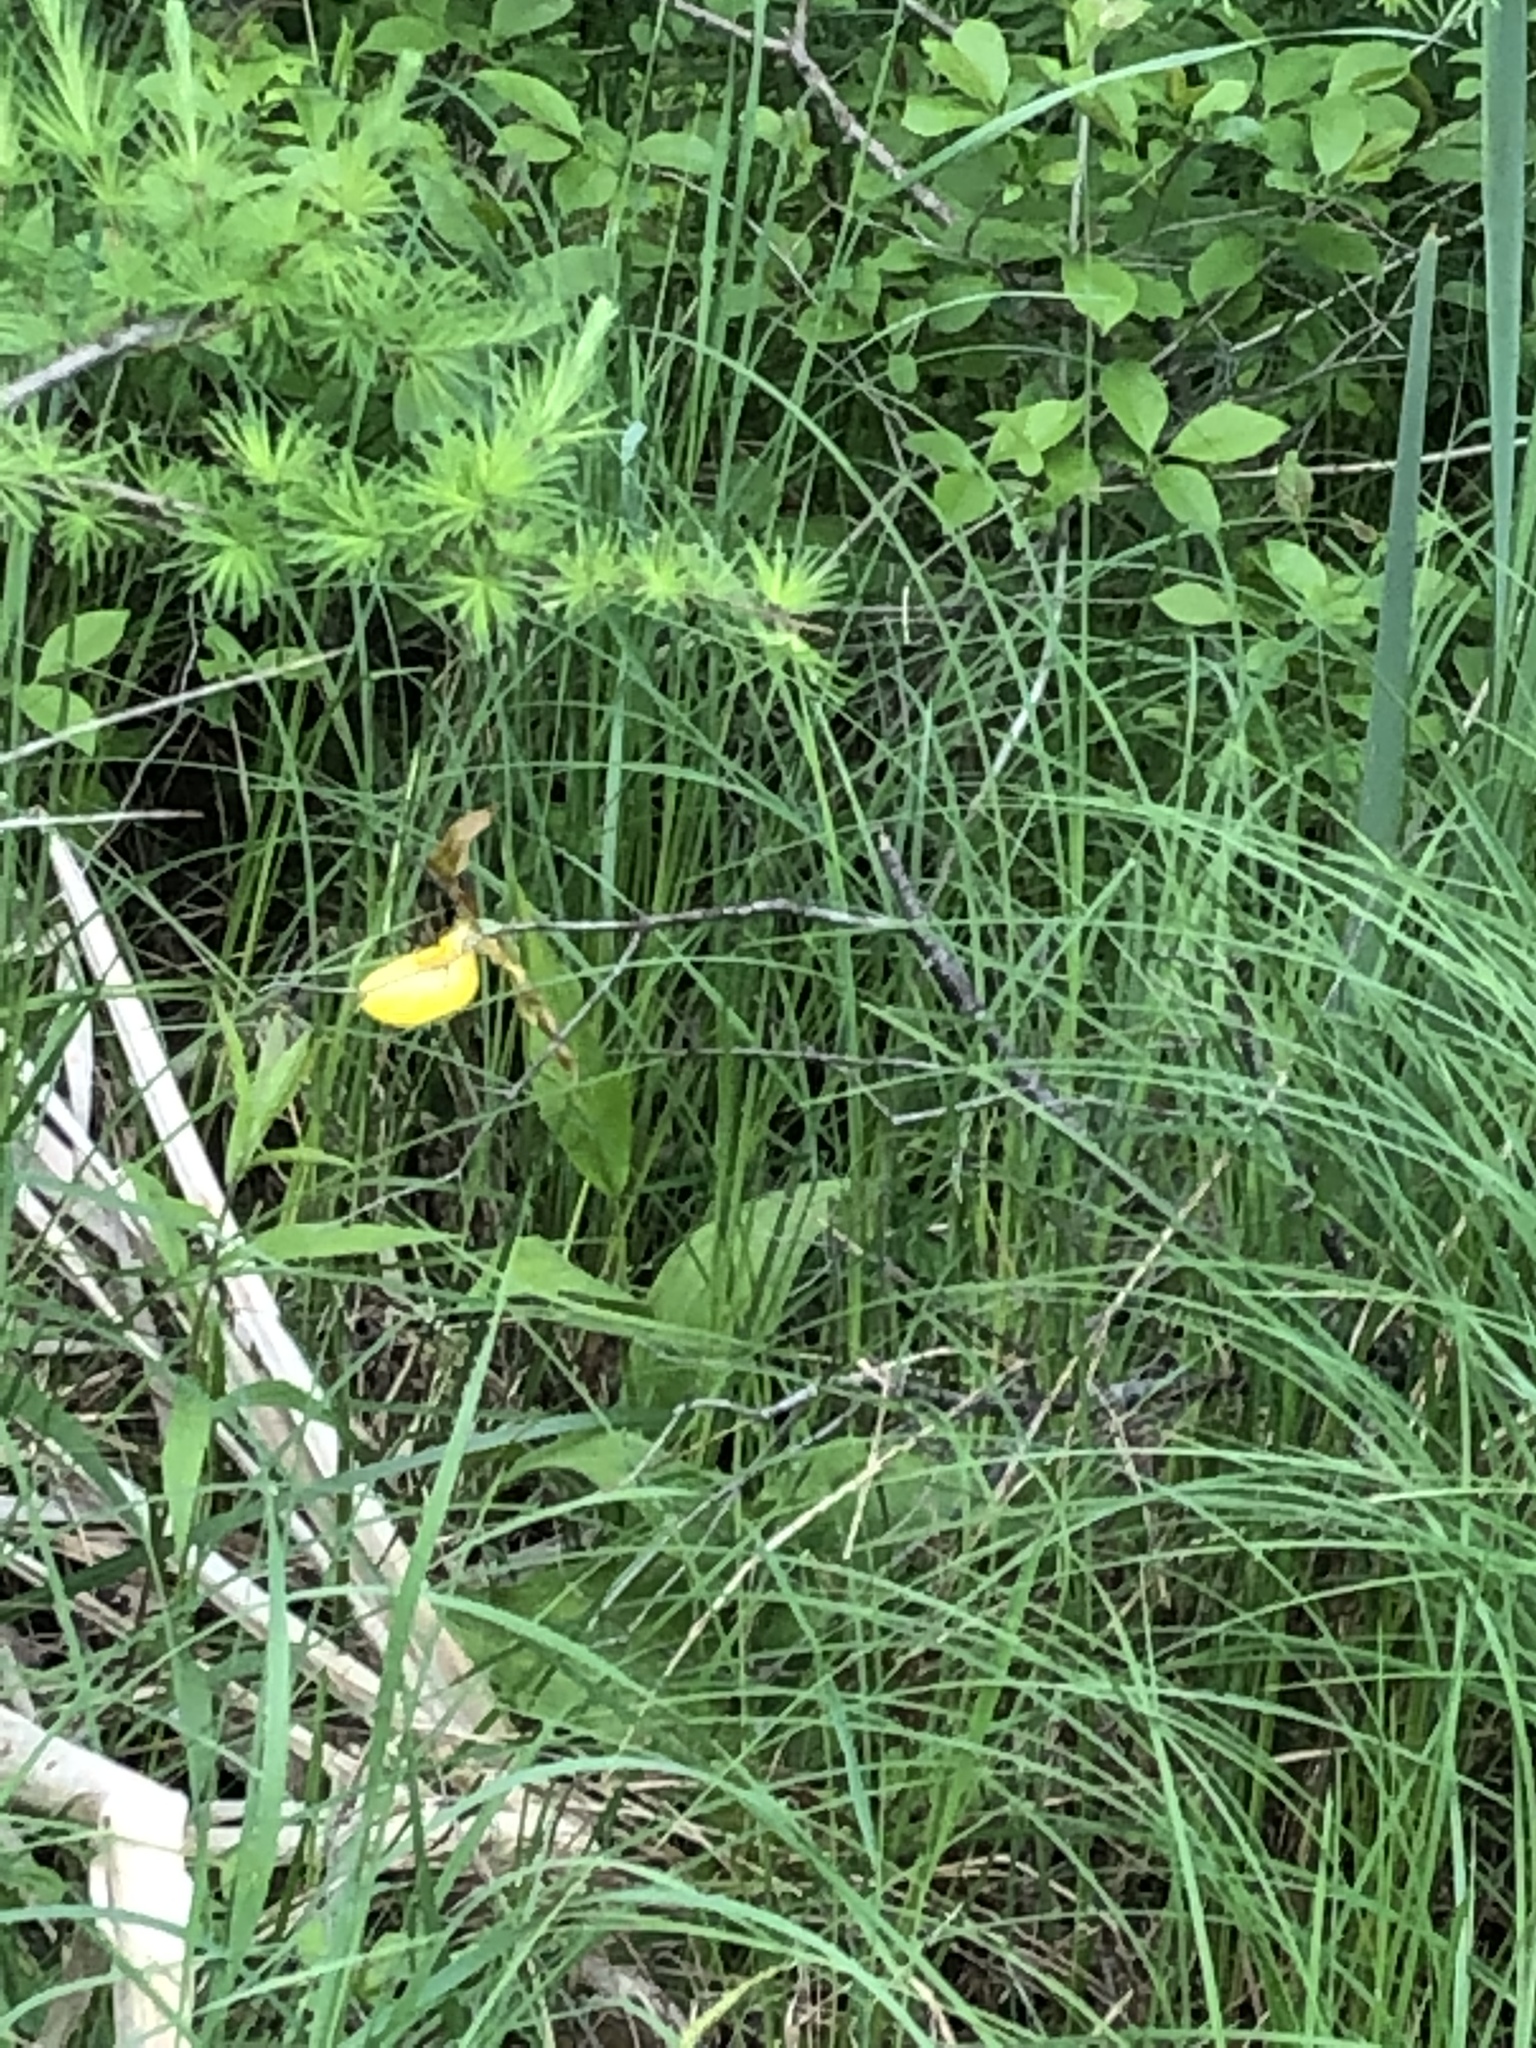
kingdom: Plantae
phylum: Tracheophyta
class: Liliopsida
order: Asparagales
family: Orchidaceae
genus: Cypripedium
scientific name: Cypripedium parviflorum
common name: American yellow lady's-slipper
